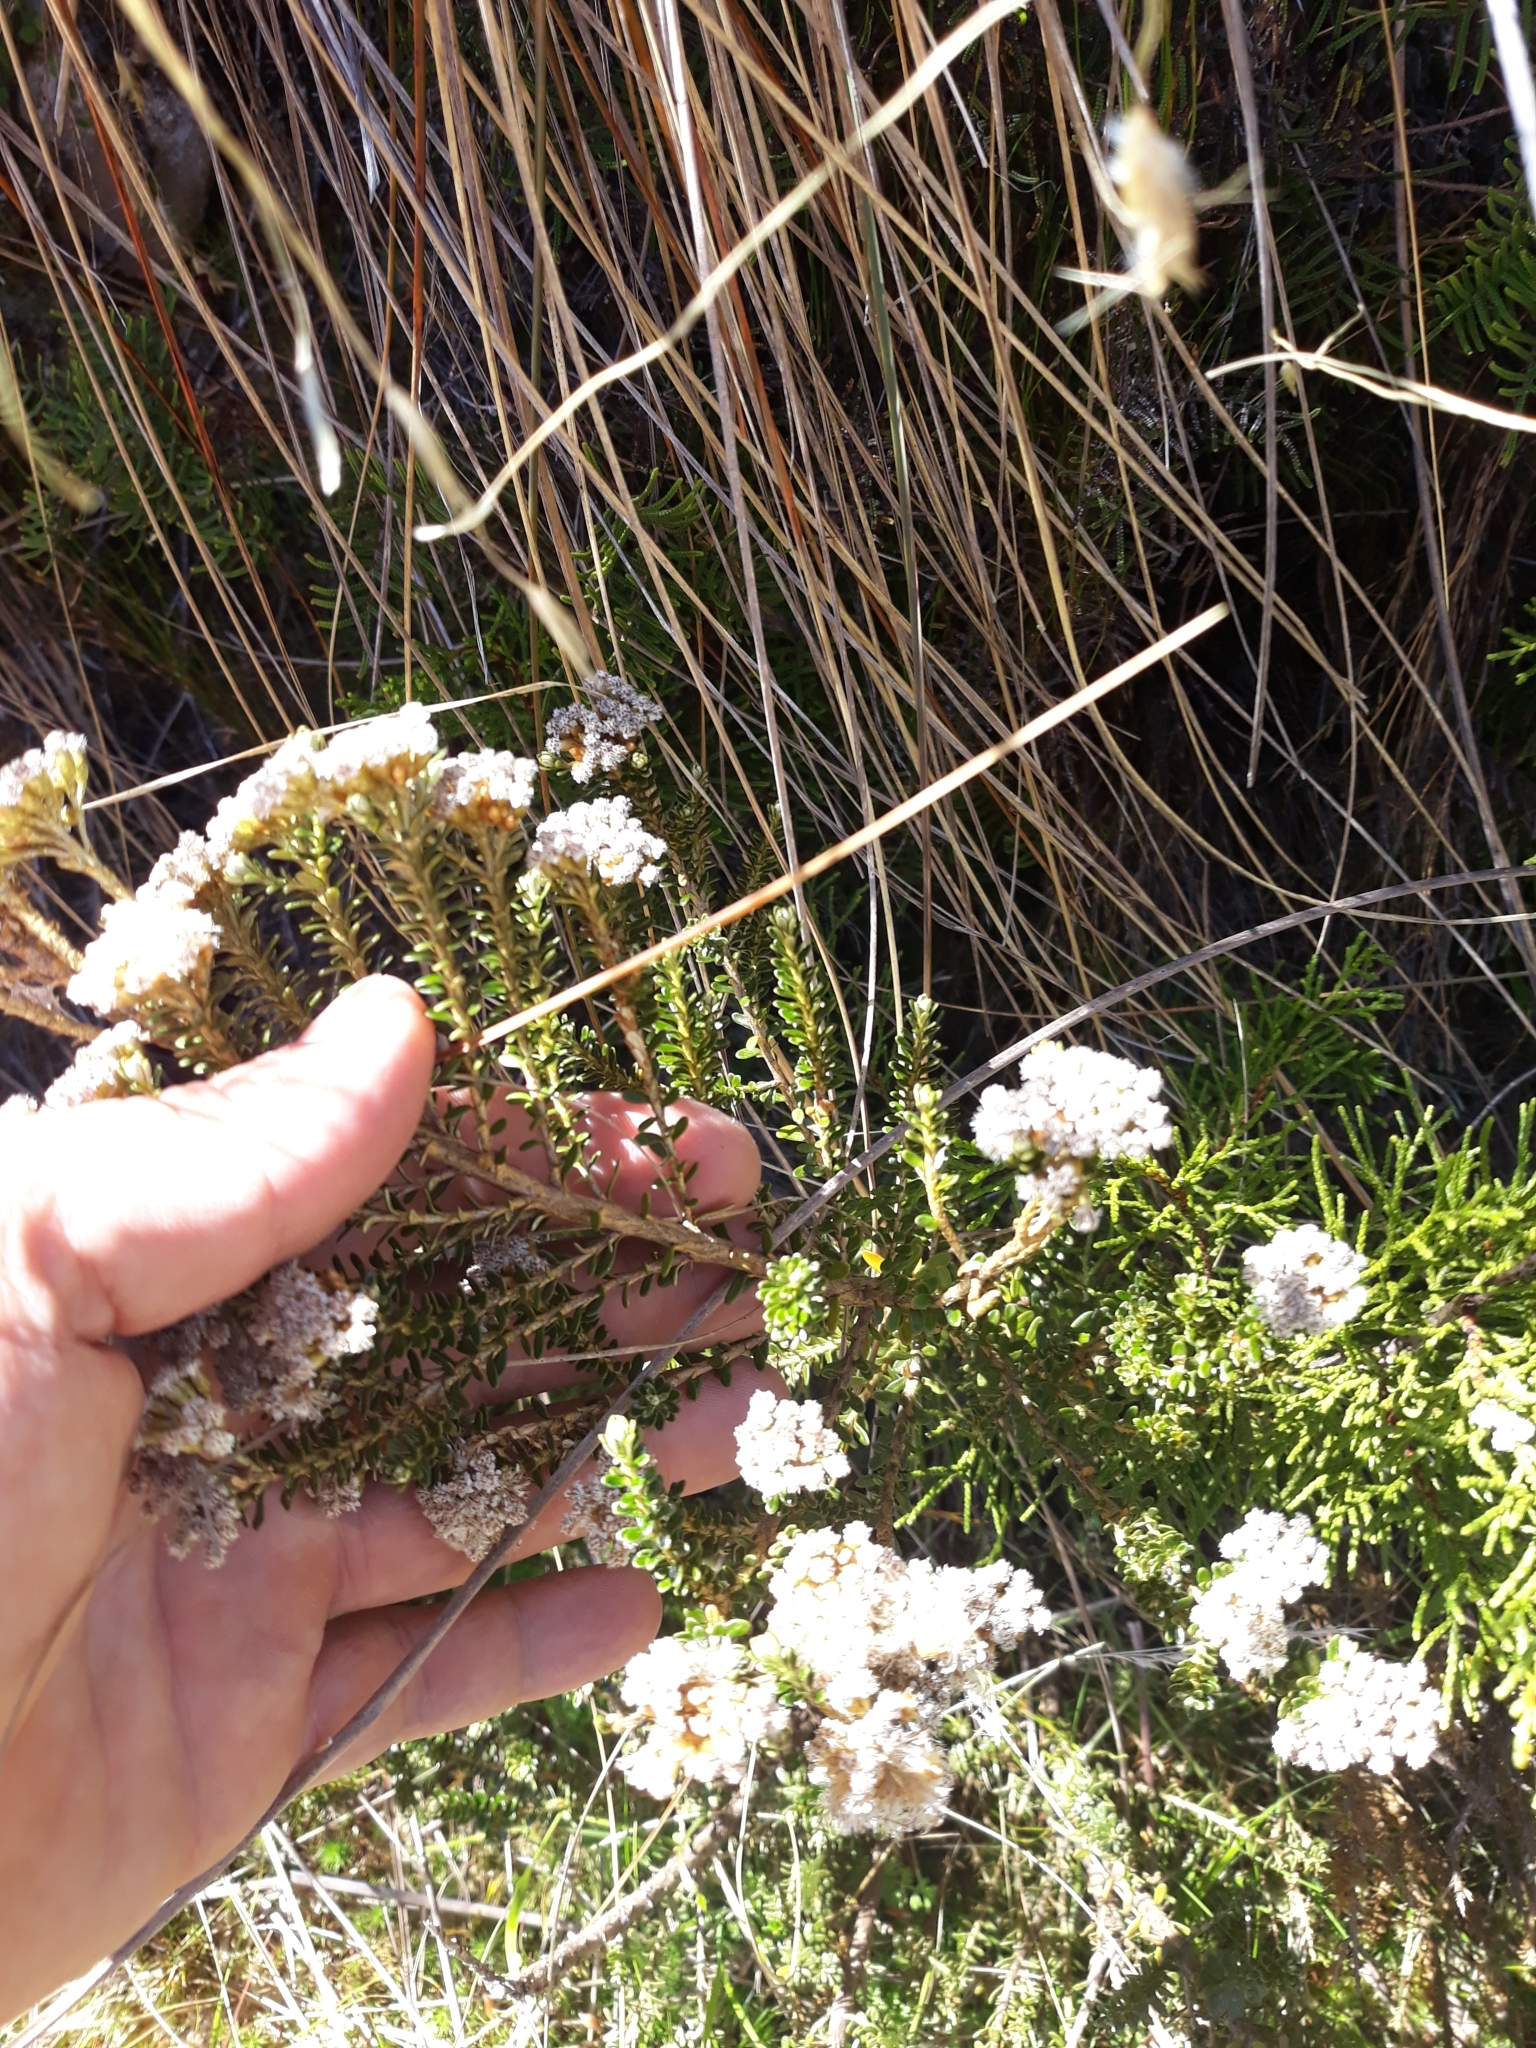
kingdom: Plantae
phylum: Tracheophyta
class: Magnoliopsida
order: Asterales
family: Asteraceae
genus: Ozothamnus
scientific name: Ozothamnus leptophyllus
